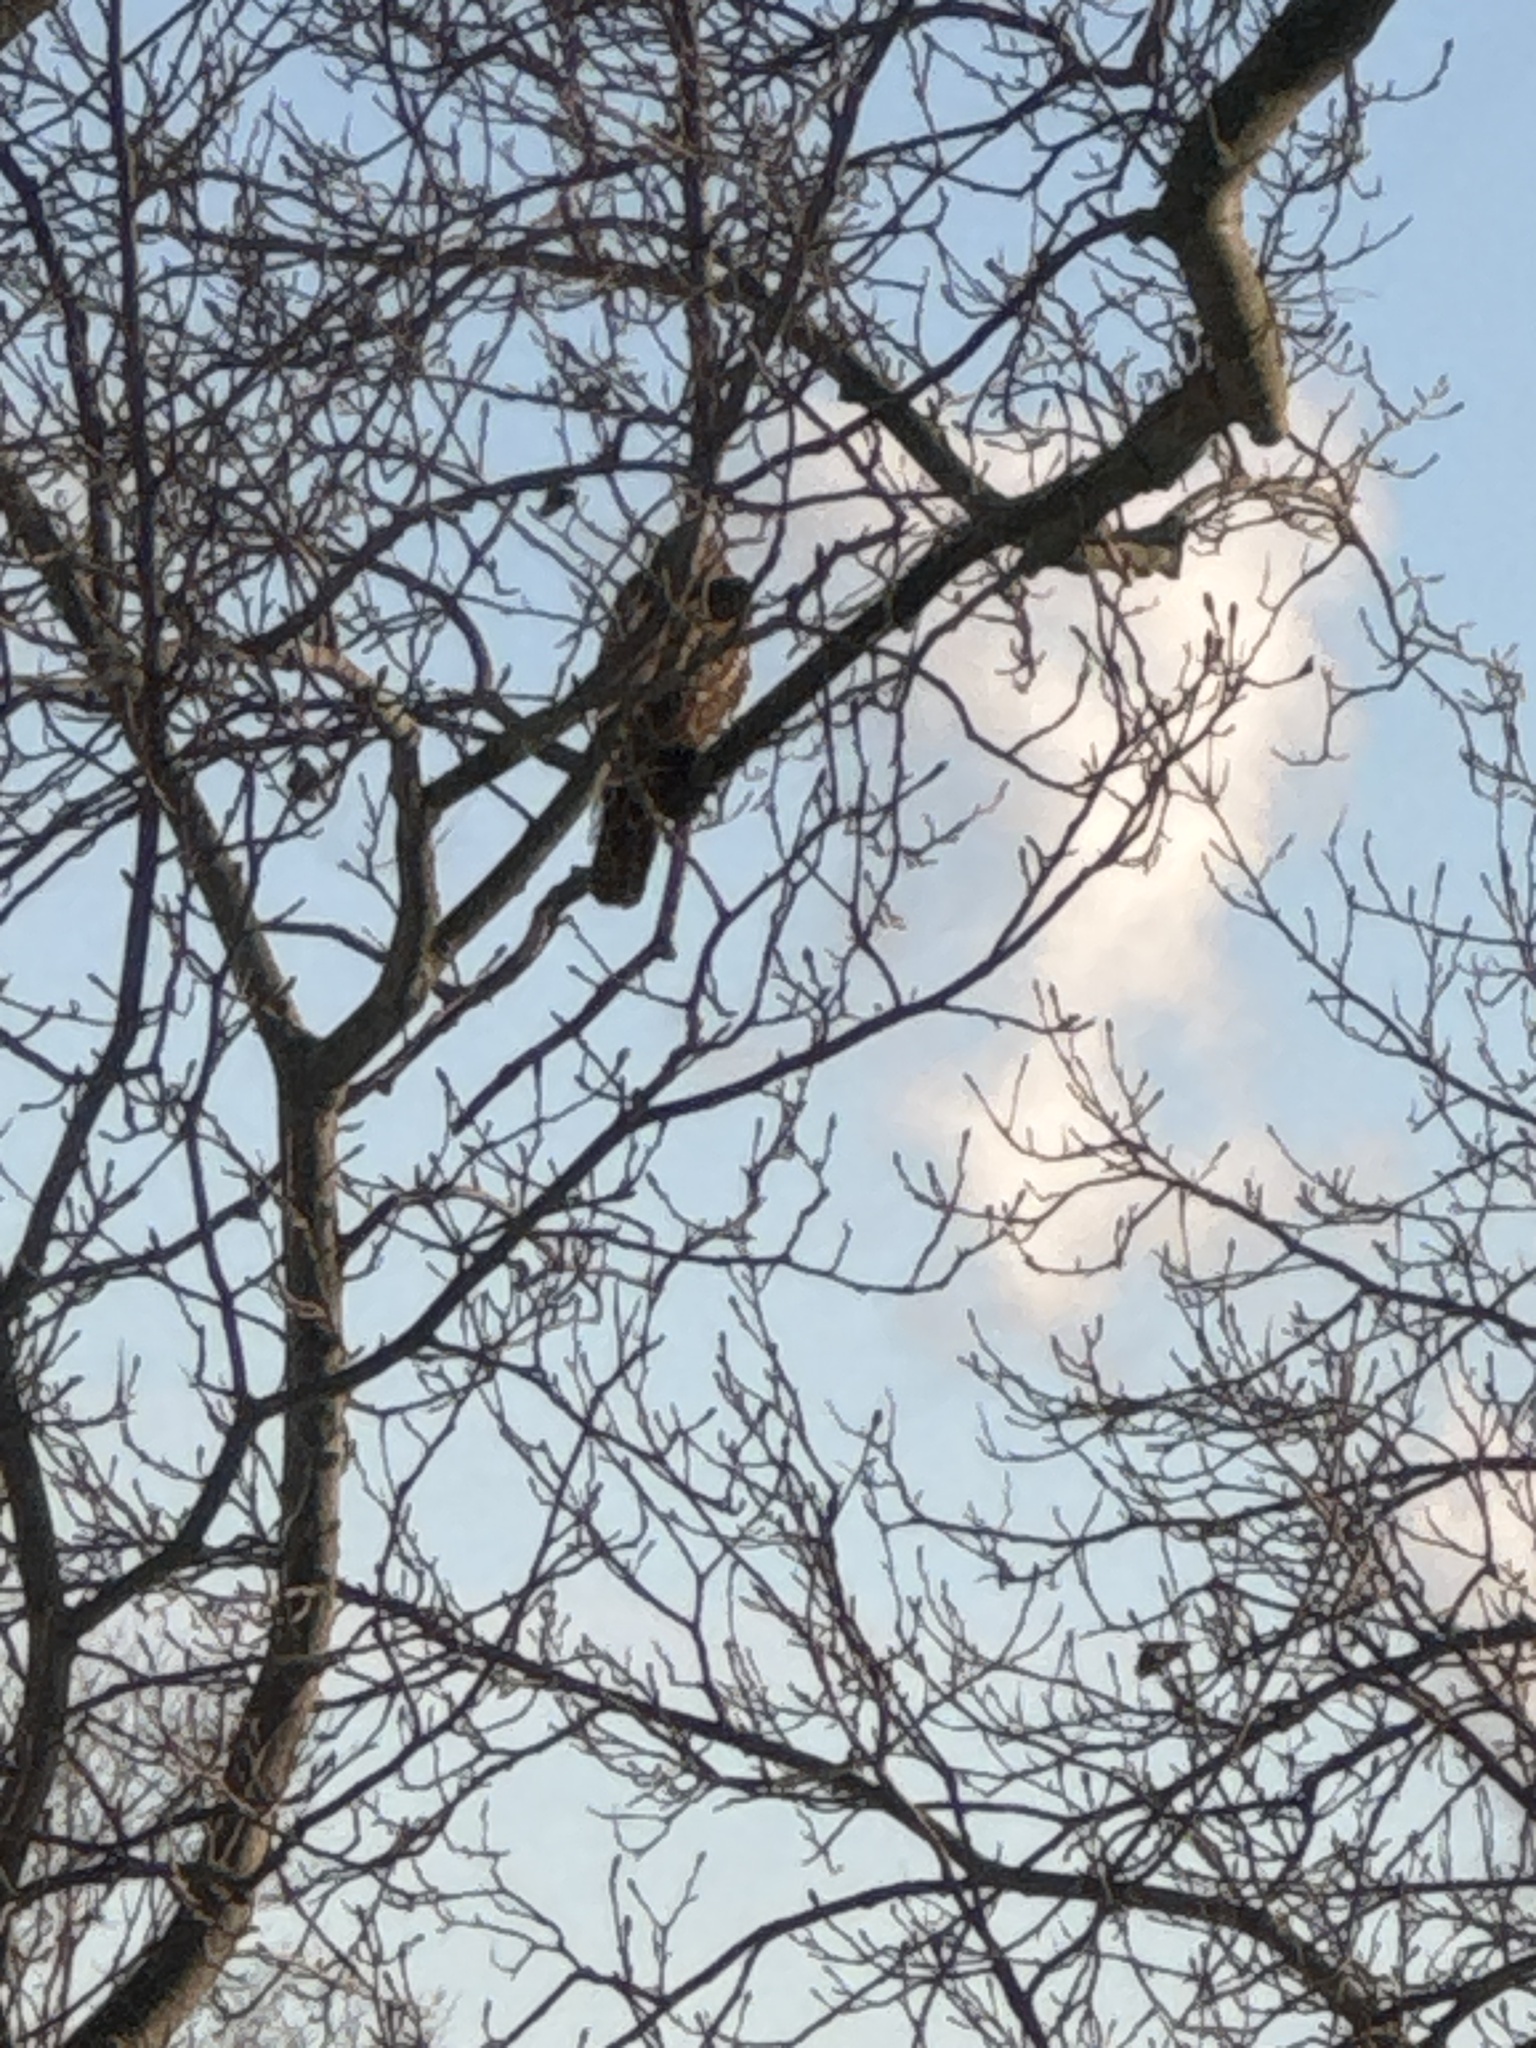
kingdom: Animalia
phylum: Chordata
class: Aves
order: Accipitriformes
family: Accipitridae
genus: Buteo
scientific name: Buteo lineatus
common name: Red-shouldered hawk
